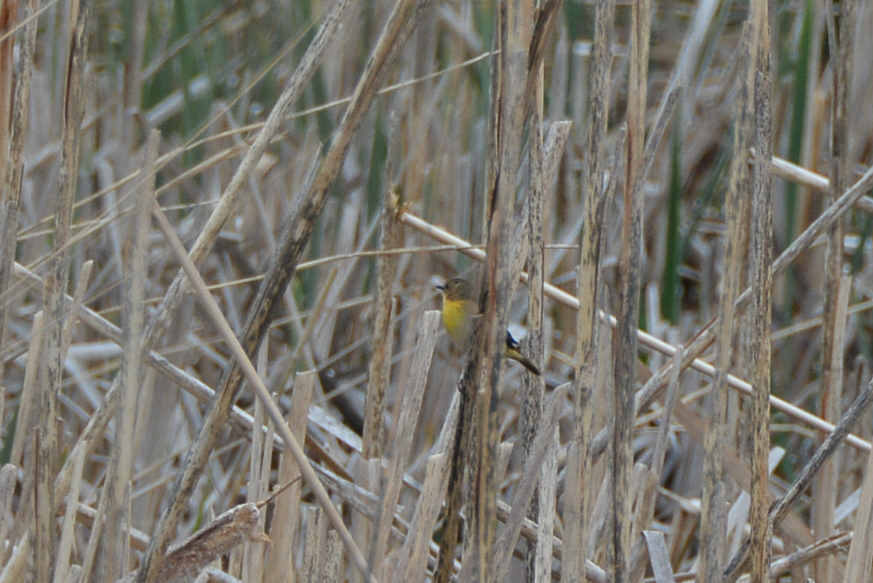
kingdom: Animalia
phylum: Chordata
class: Aves
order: Passeriformes
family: Parulidae
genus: Geothlypis
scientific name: Geothlypis trichas
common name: Common yellowthroat
